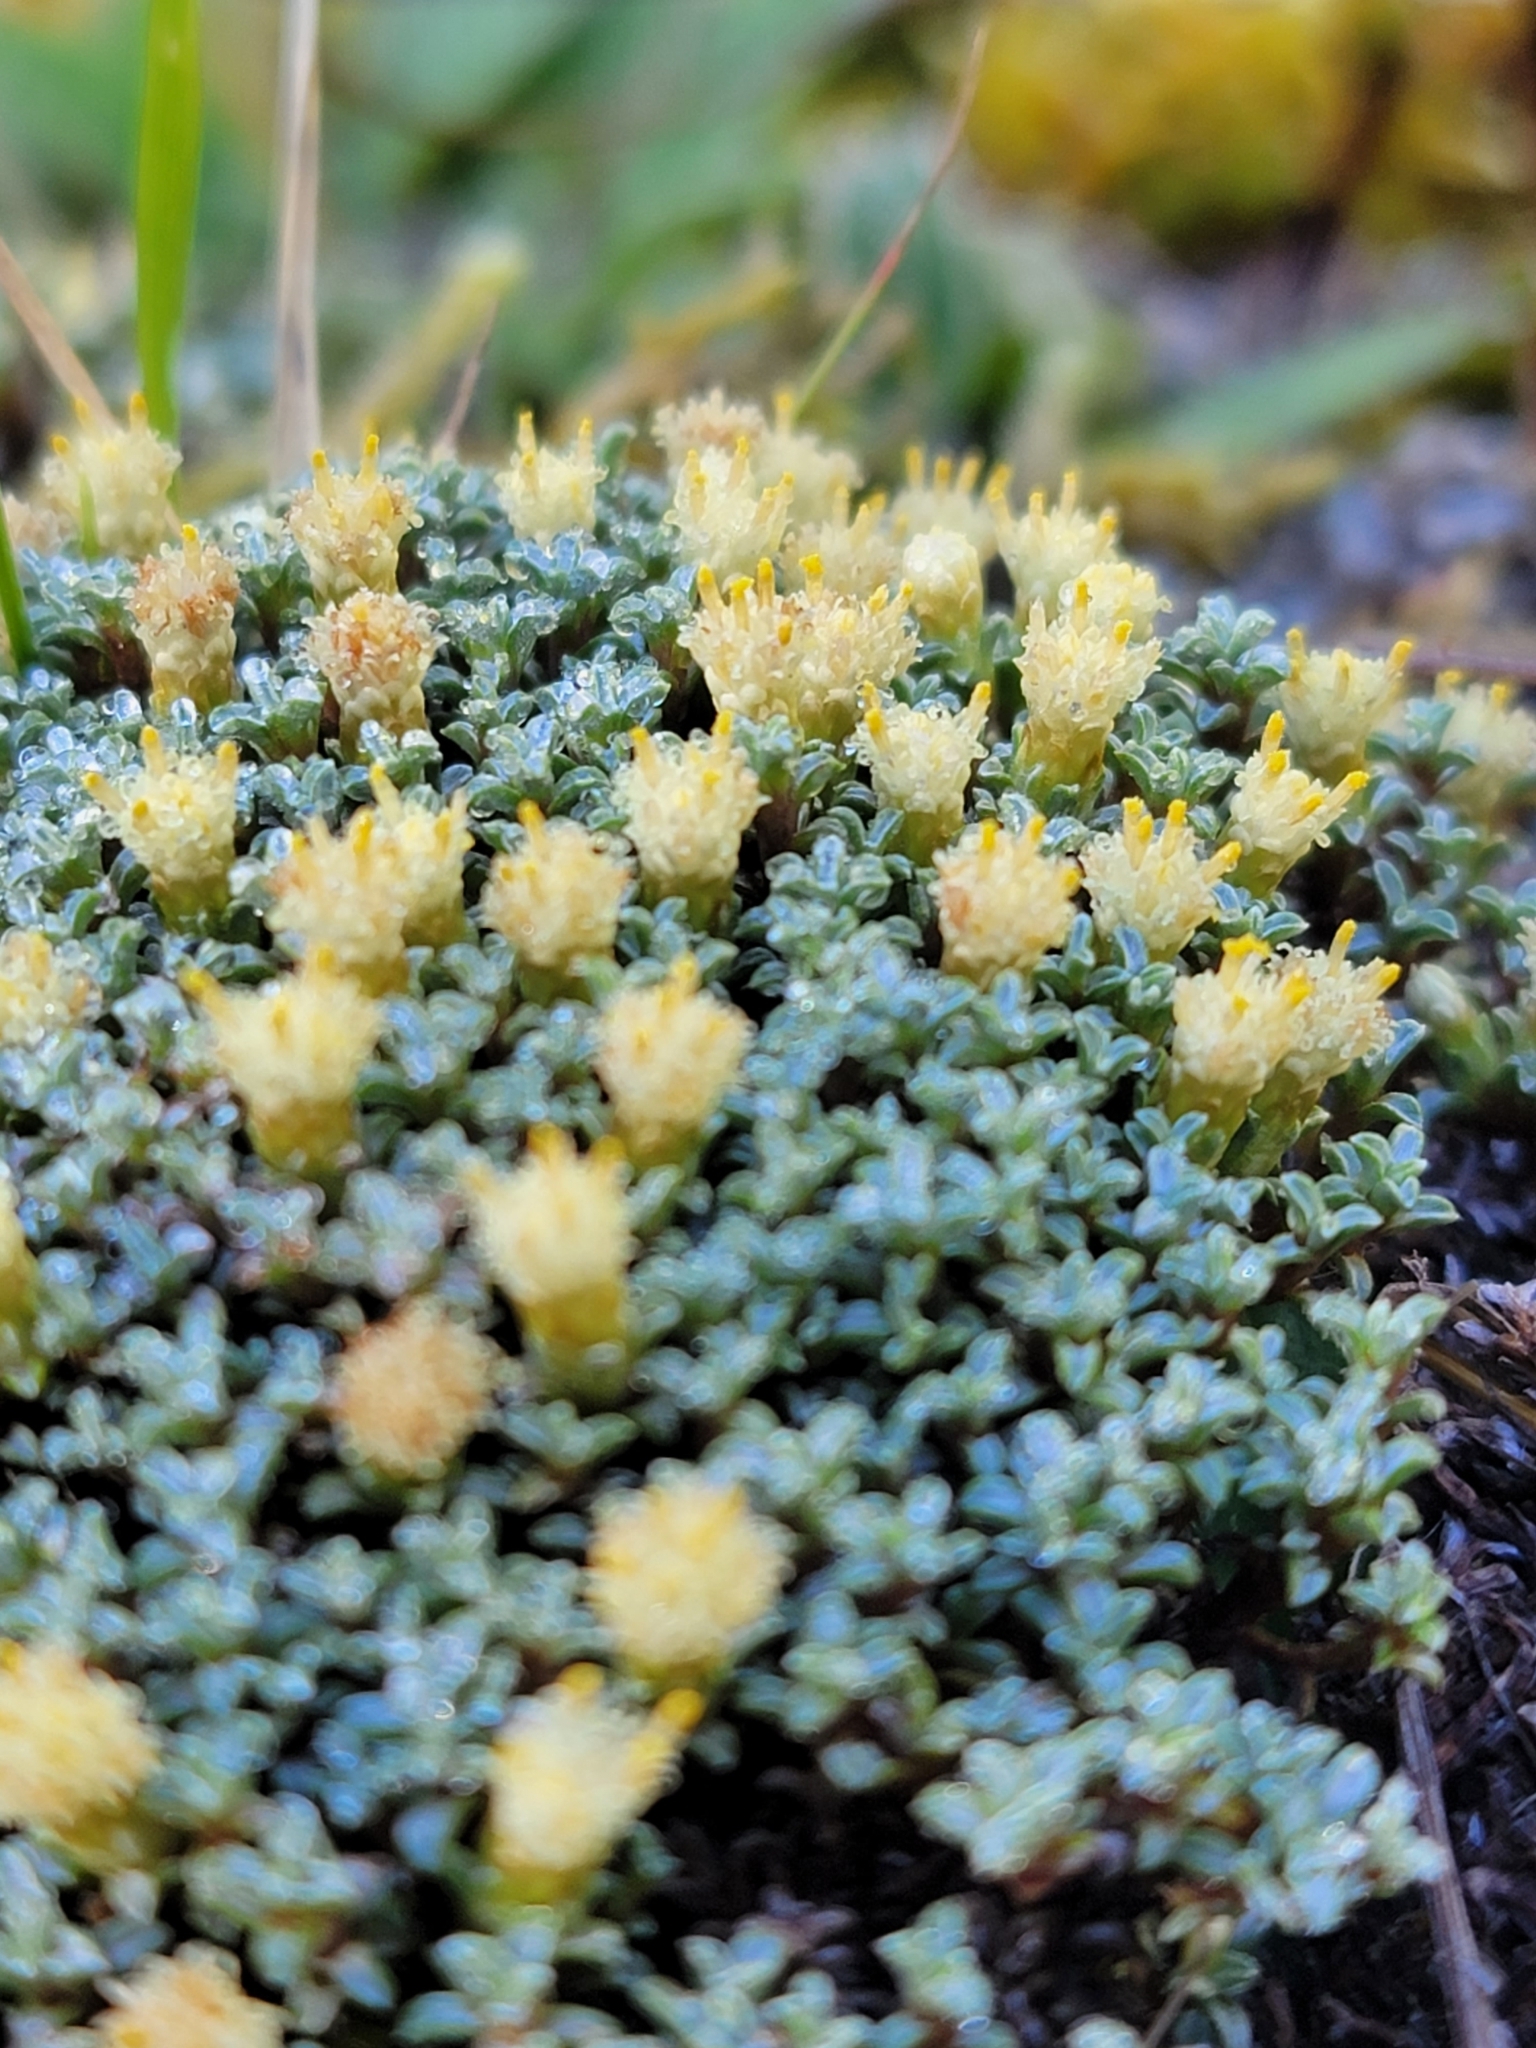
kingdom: Plantae
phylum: Tracheophyta
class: Magnoliopsida
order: Asterales
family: Asteraceae
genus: Raoulia
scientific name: Raoulia australis
